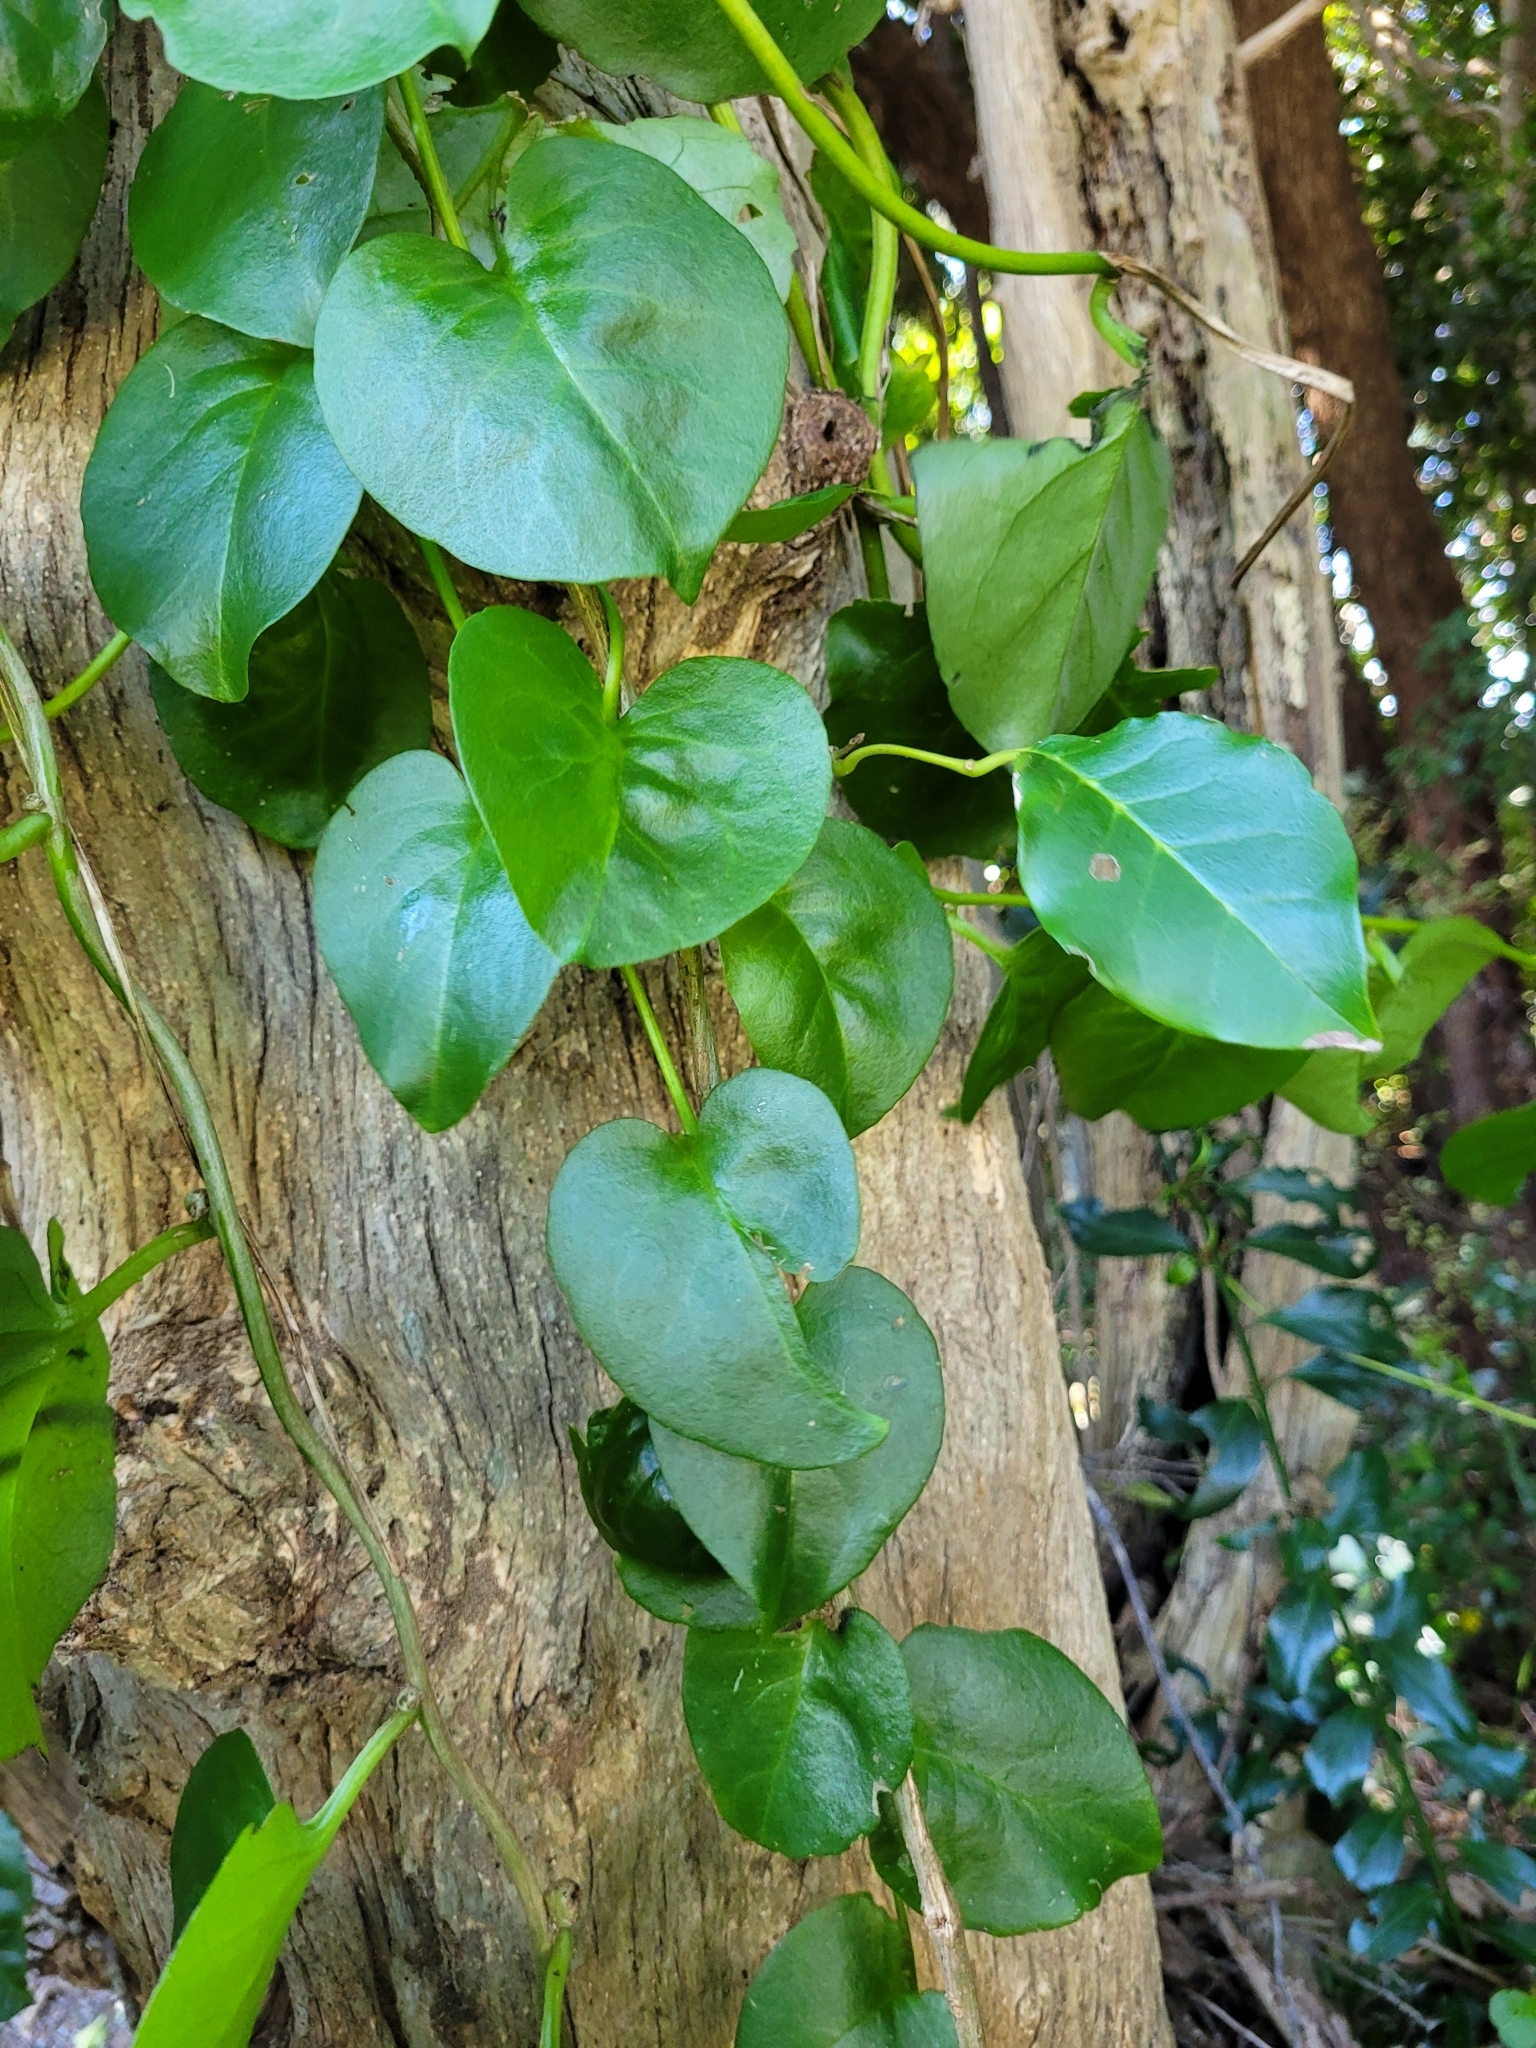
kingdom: Plantae
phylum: Tracheophyta
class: Magnoliopsida
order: Caryophyllales
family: Basellaceae
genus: Anredera
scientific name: Anredera cordifolia
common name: Heartleaf madeiravine
